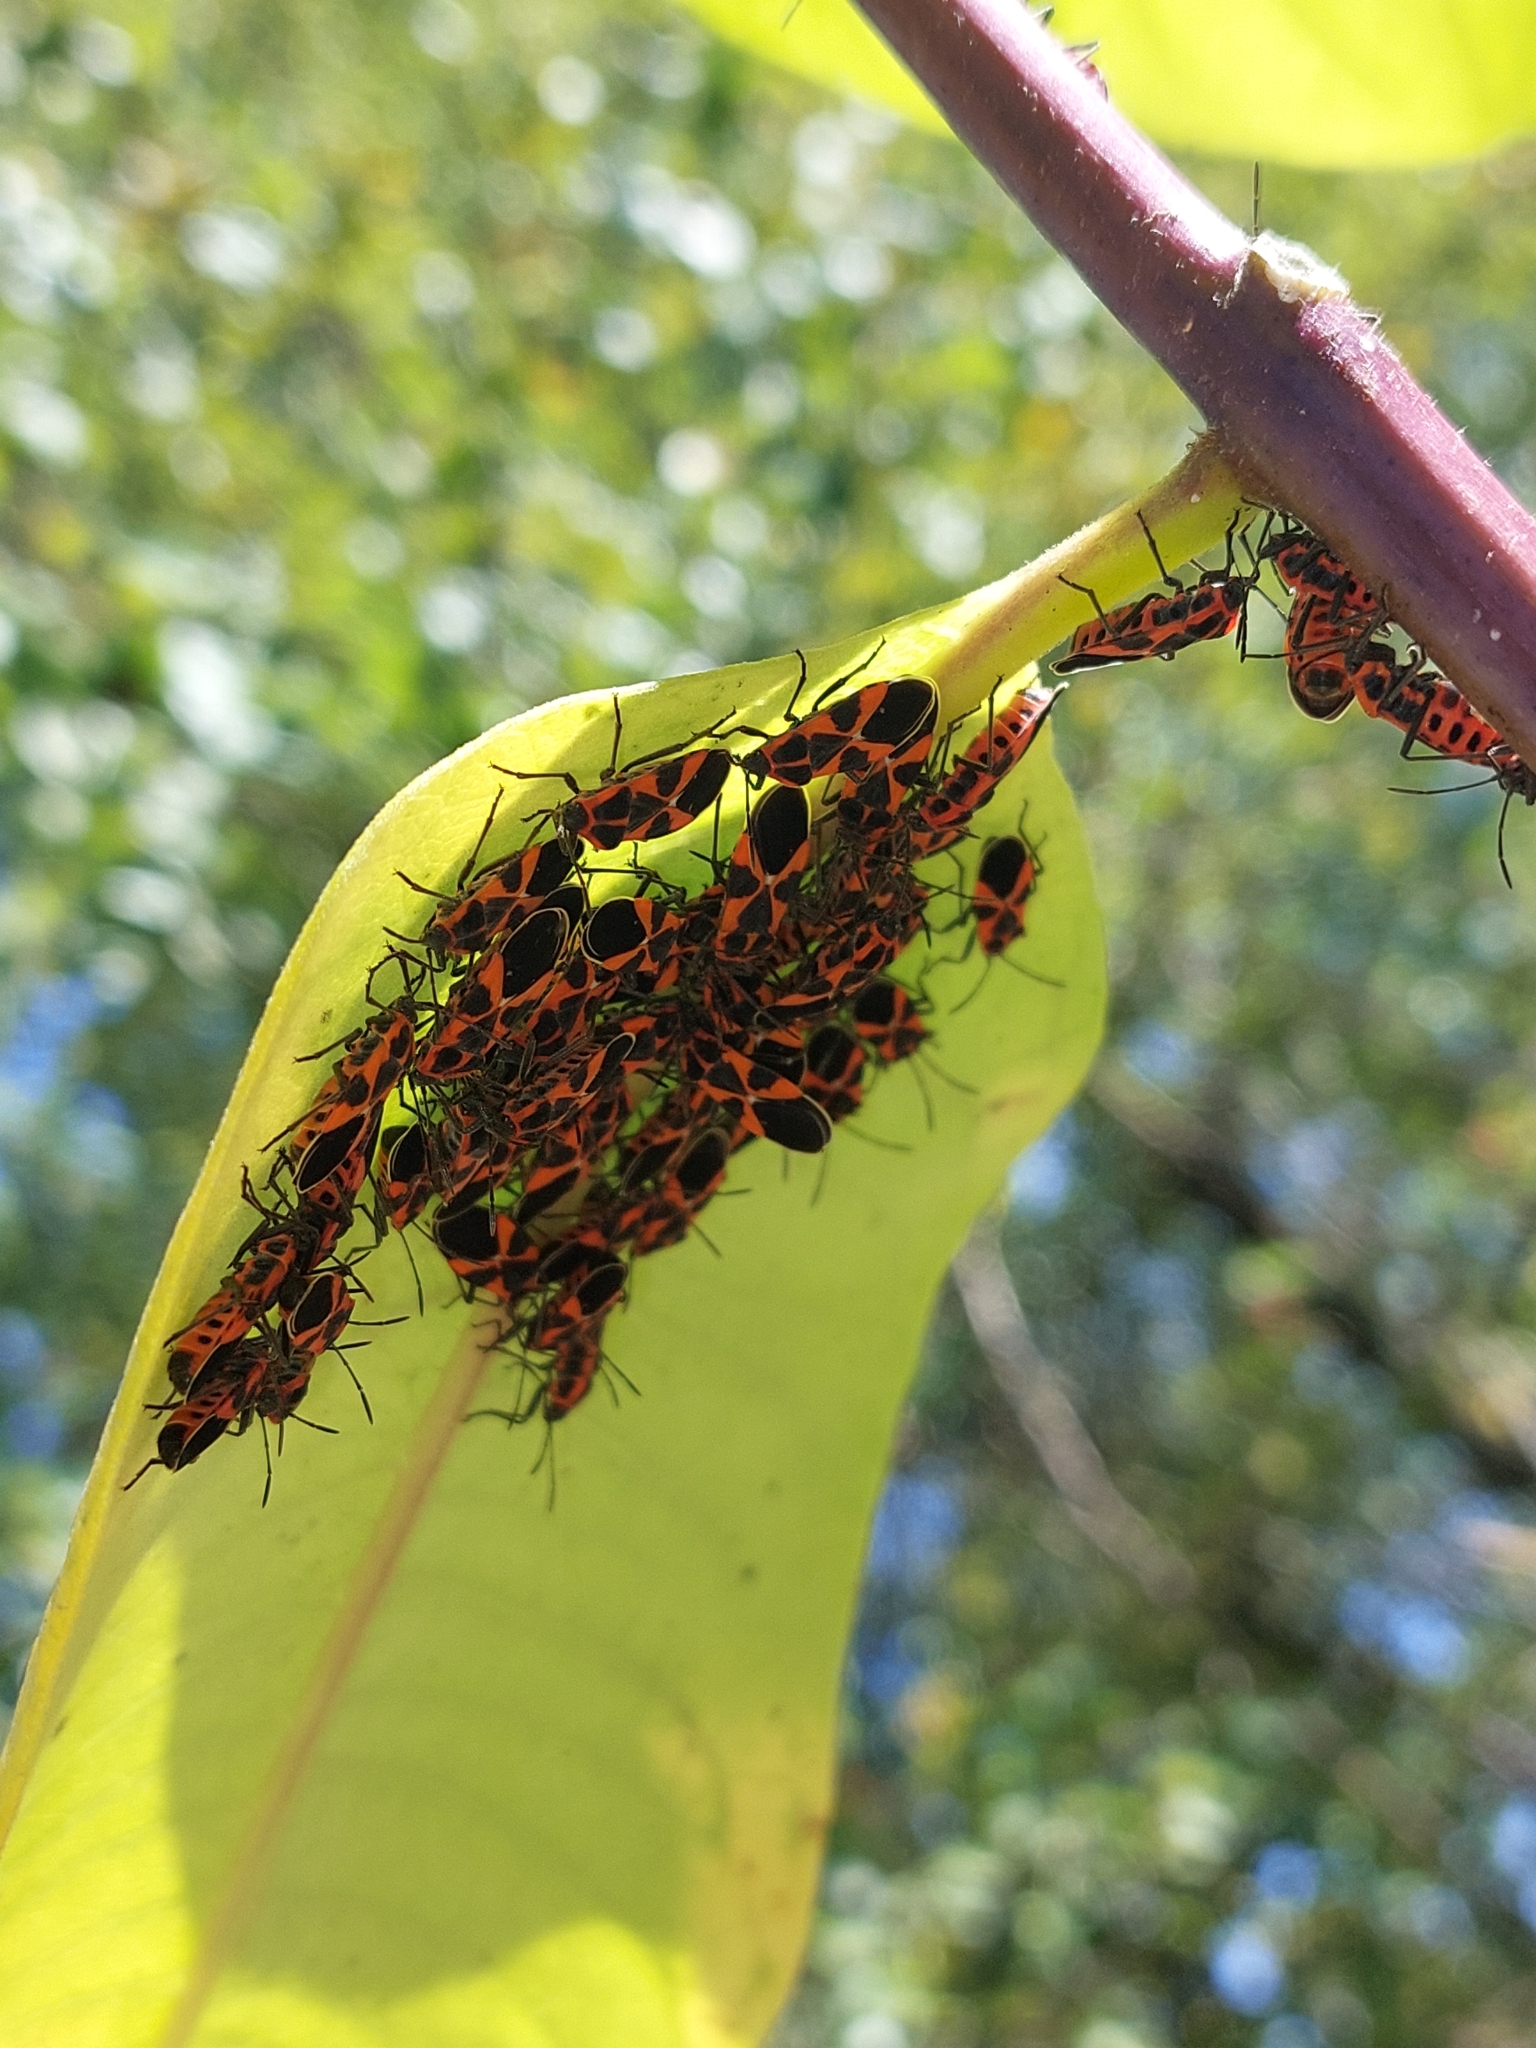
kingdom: Animalia
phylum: Arthropoda
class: Insecta
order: Hemiptera
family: Lygaeidae
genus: Tropidothorax
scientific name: Tropidothorax leucopterus
